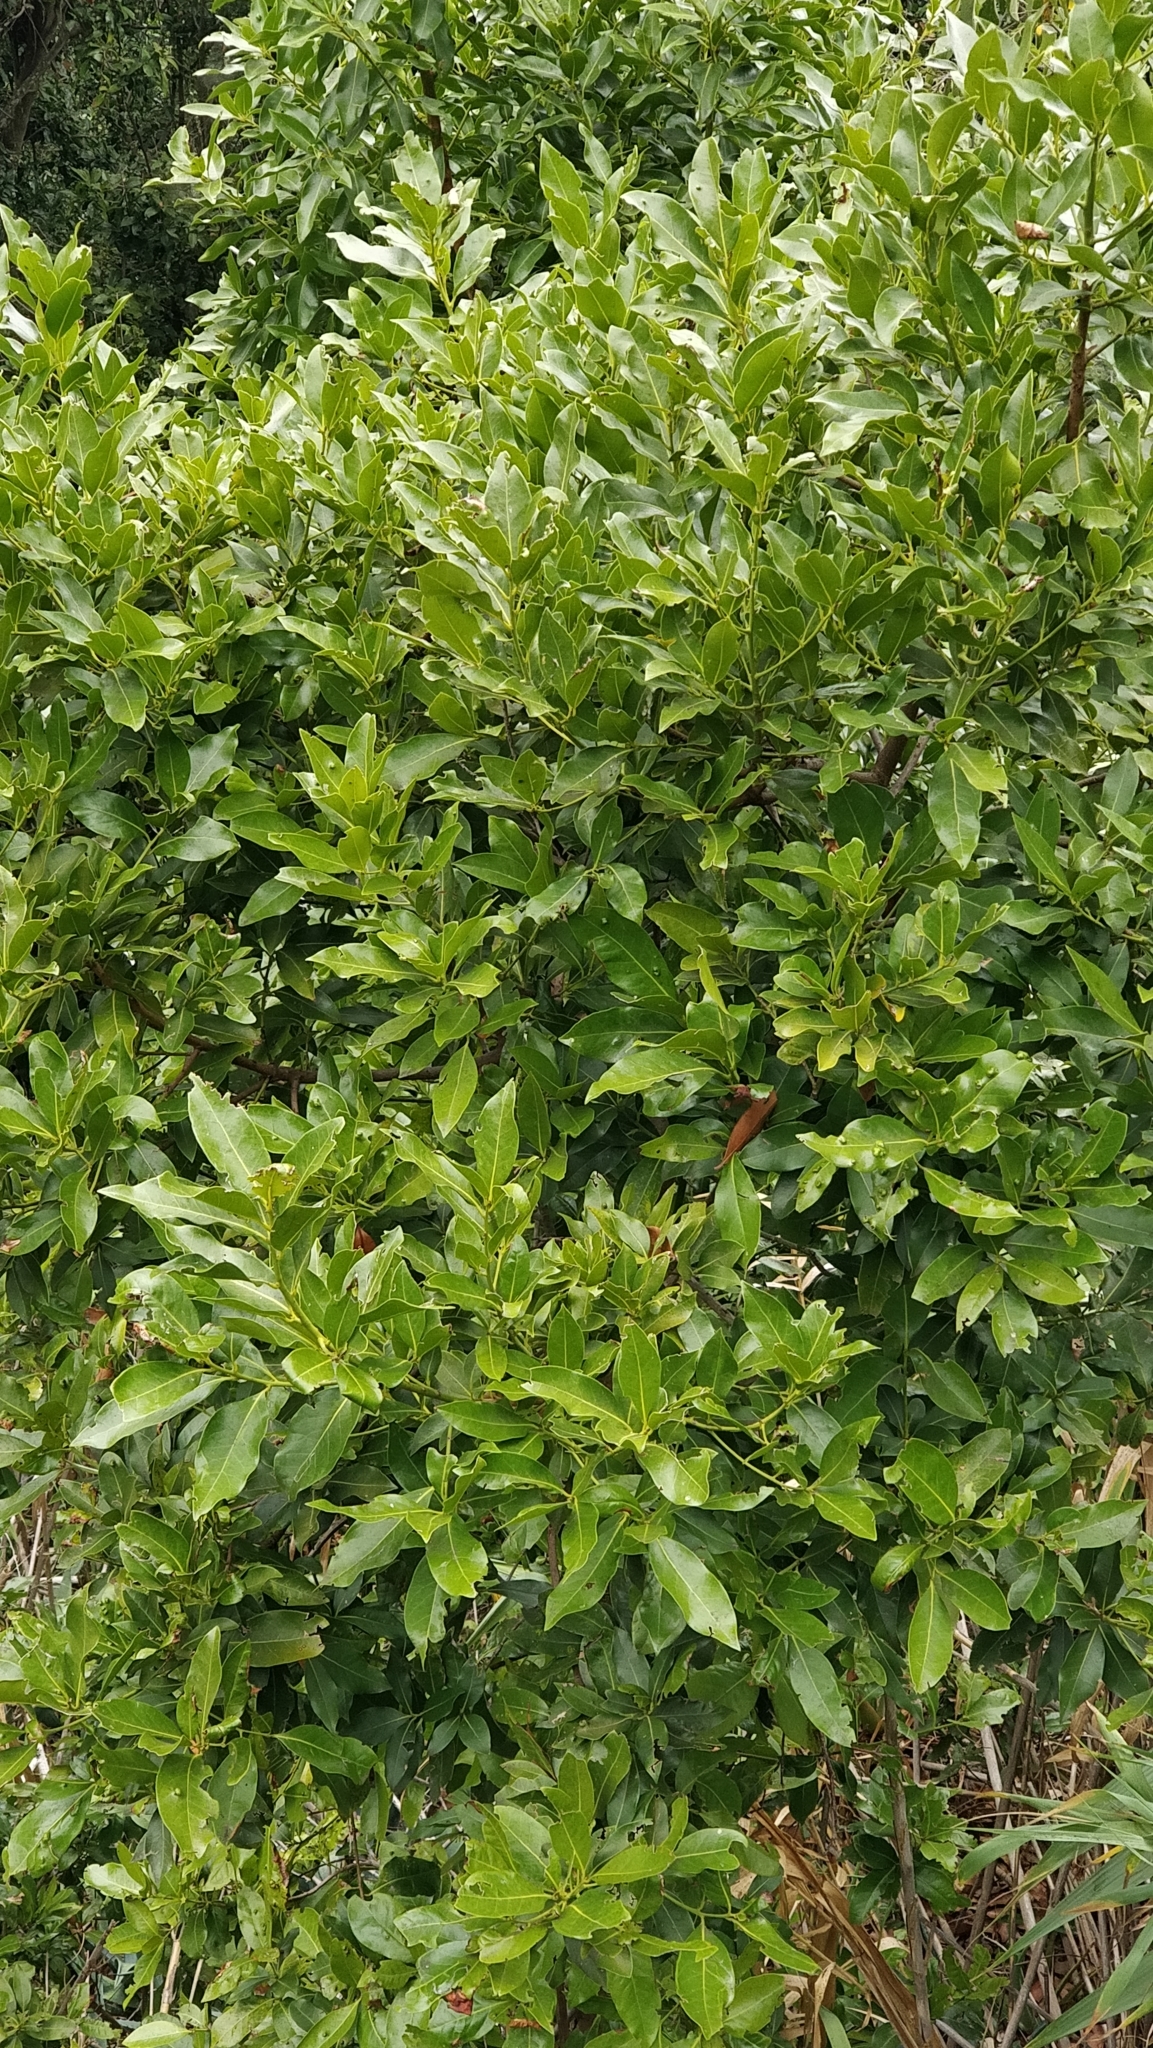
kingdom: Plantae
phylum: Tracheophyta
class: Magnoliopsida
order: Laurales
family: Lauraceae
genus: Apollonias
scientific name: Apollonias barbujana
